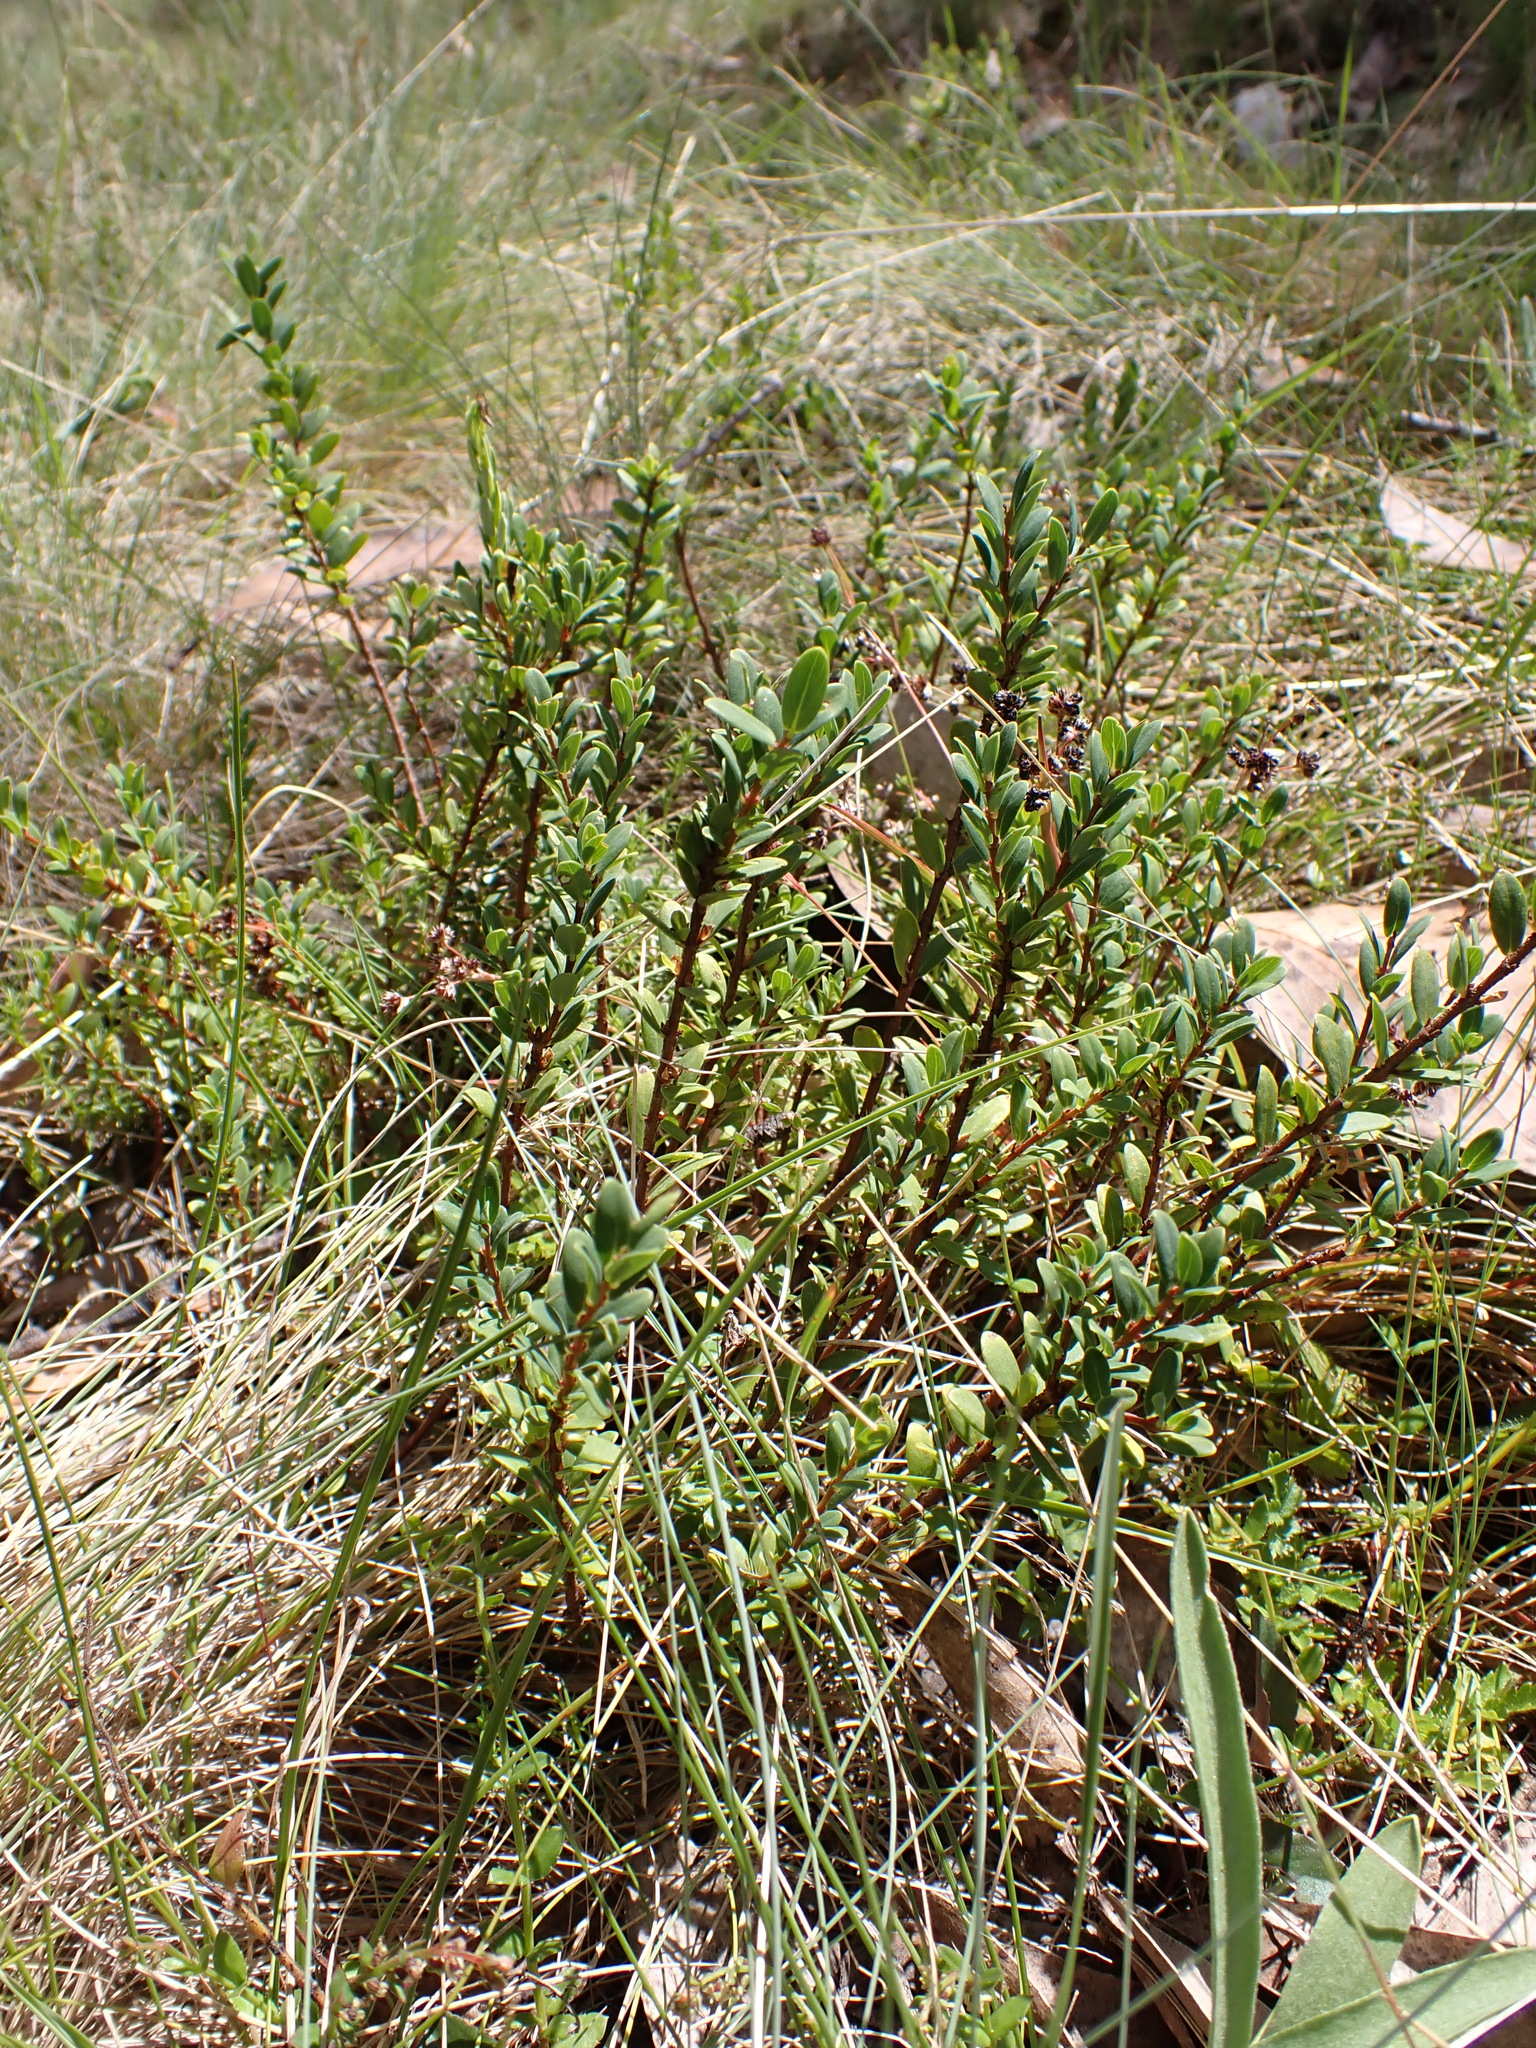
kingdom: Plantae
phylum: Tracheophyta
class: Magnoliopsida
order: Malvales
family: Thymelaeaceae
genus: Pimelea
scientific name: Pimelea axiflora
